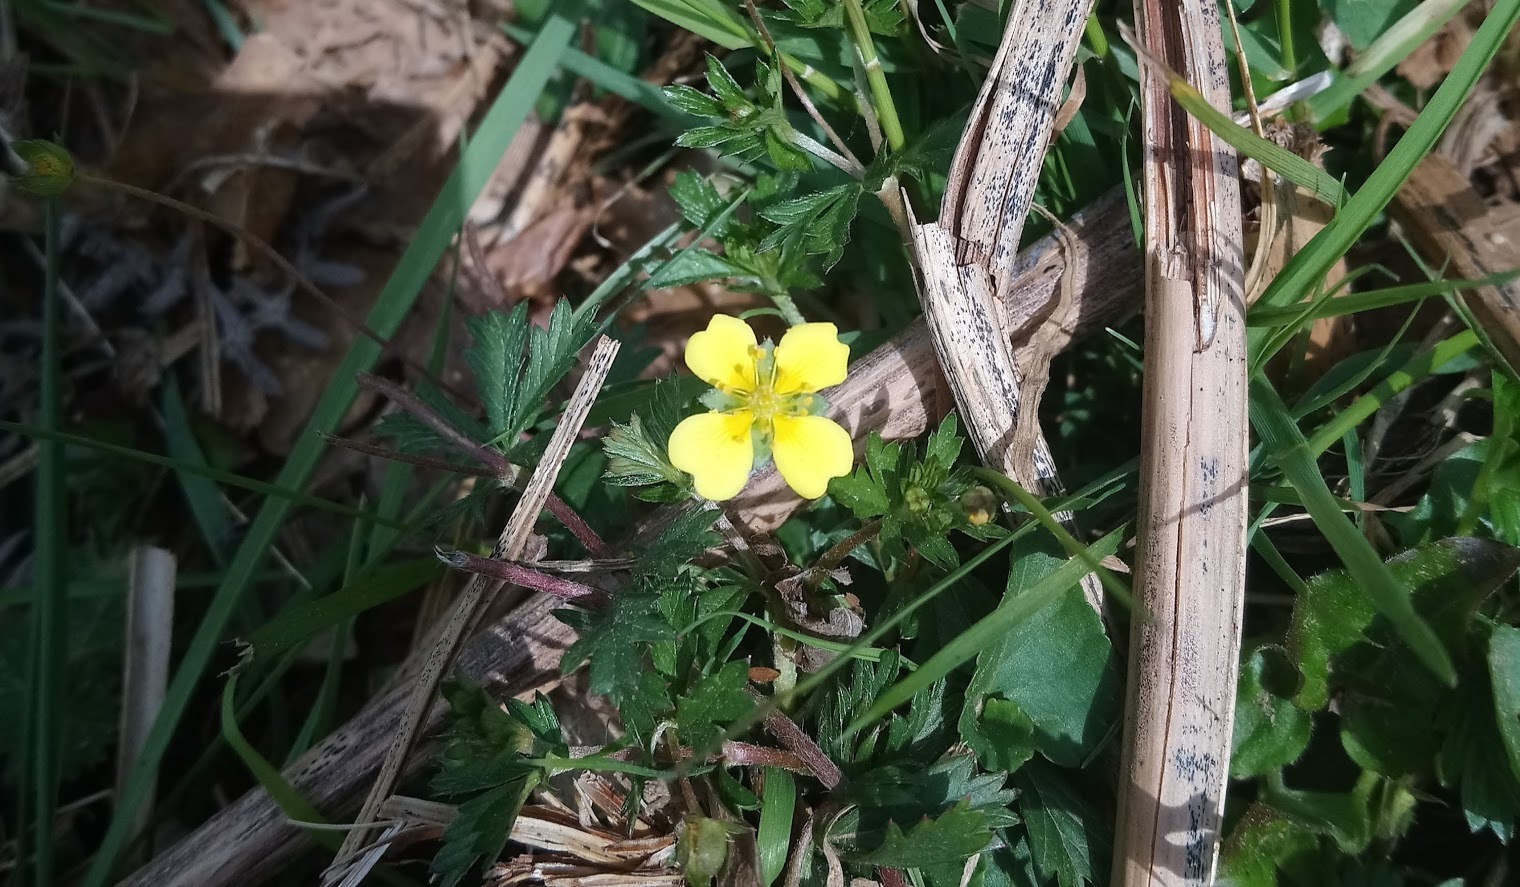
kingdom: Plantae
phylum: Tracheophyta
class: Magnoliopsida
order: Rosales
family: Rosaceae
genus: Potentilla
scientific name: Potentilla erecta
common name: Tormentil
